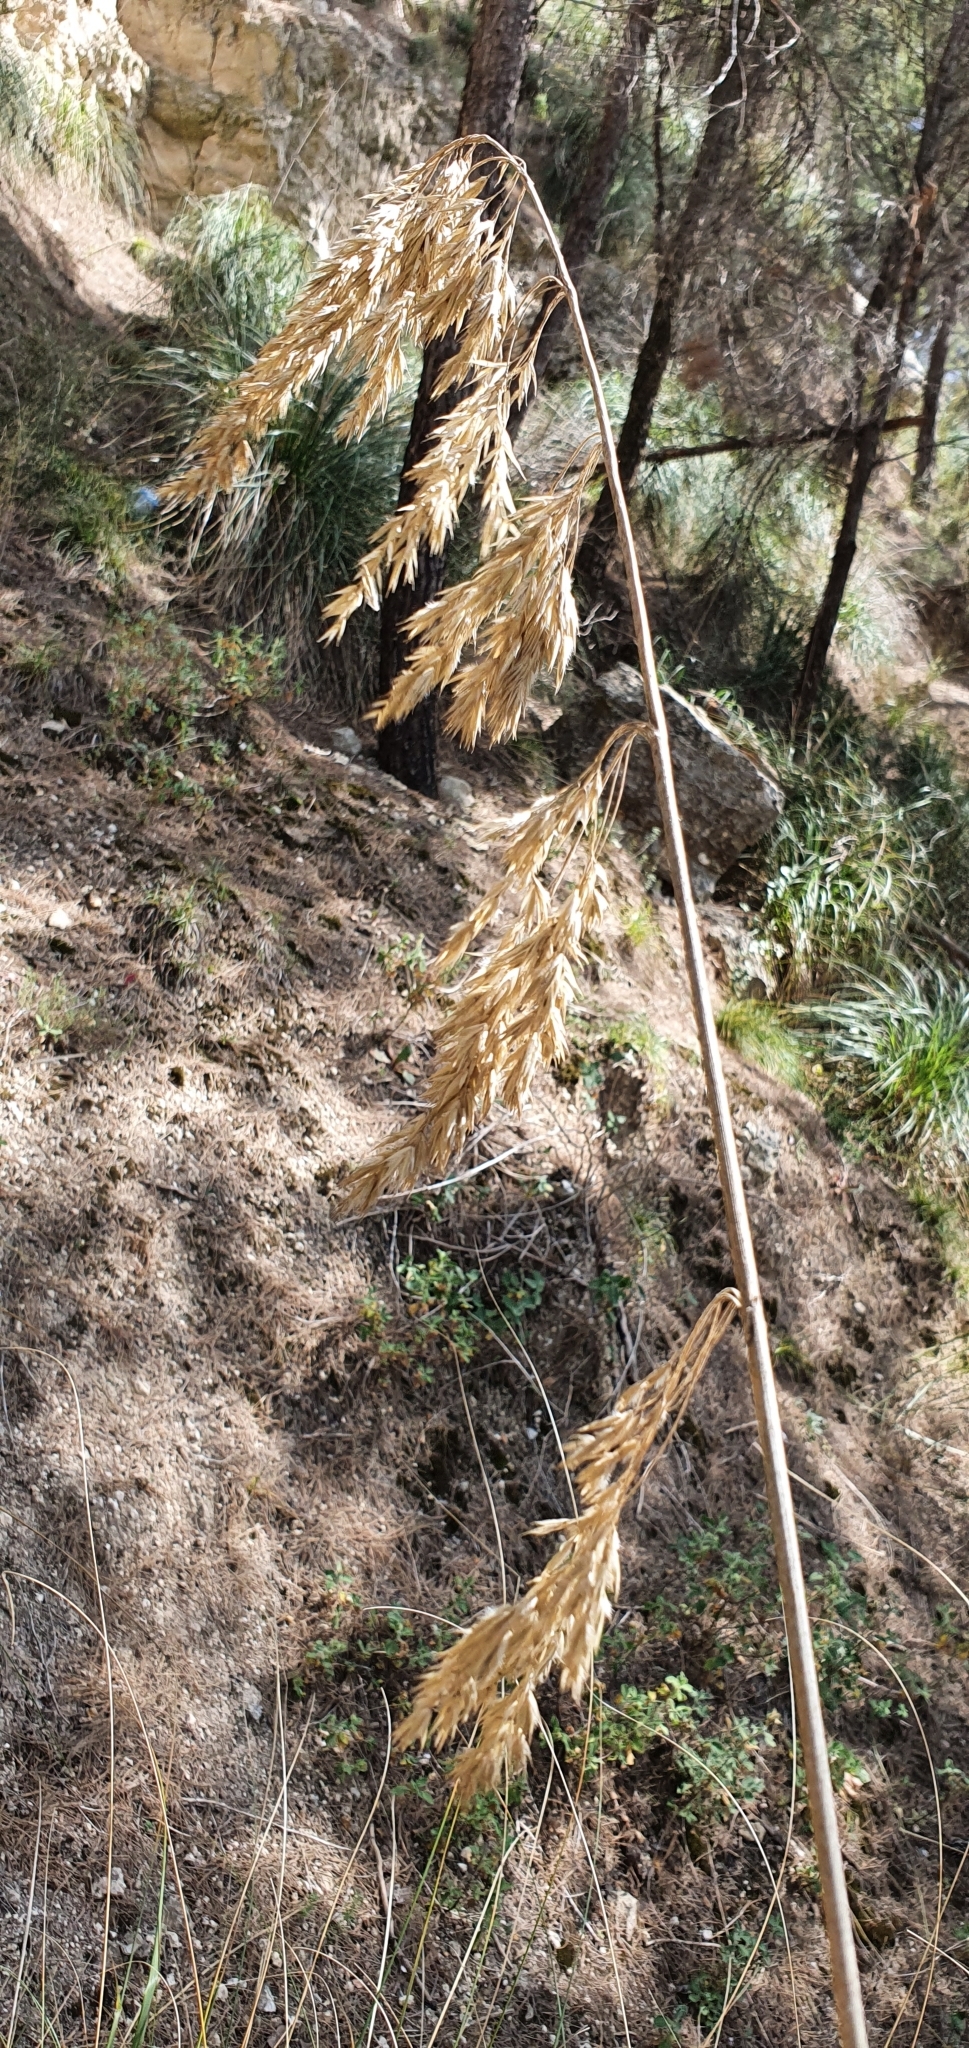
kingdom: Plantae
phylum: Tracheophyta
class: Liliopsida
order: Poales
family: Poaceae
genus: Ampelodesmos
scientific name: Ampelodesmos mauritanicus
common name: Mauritanian grass
